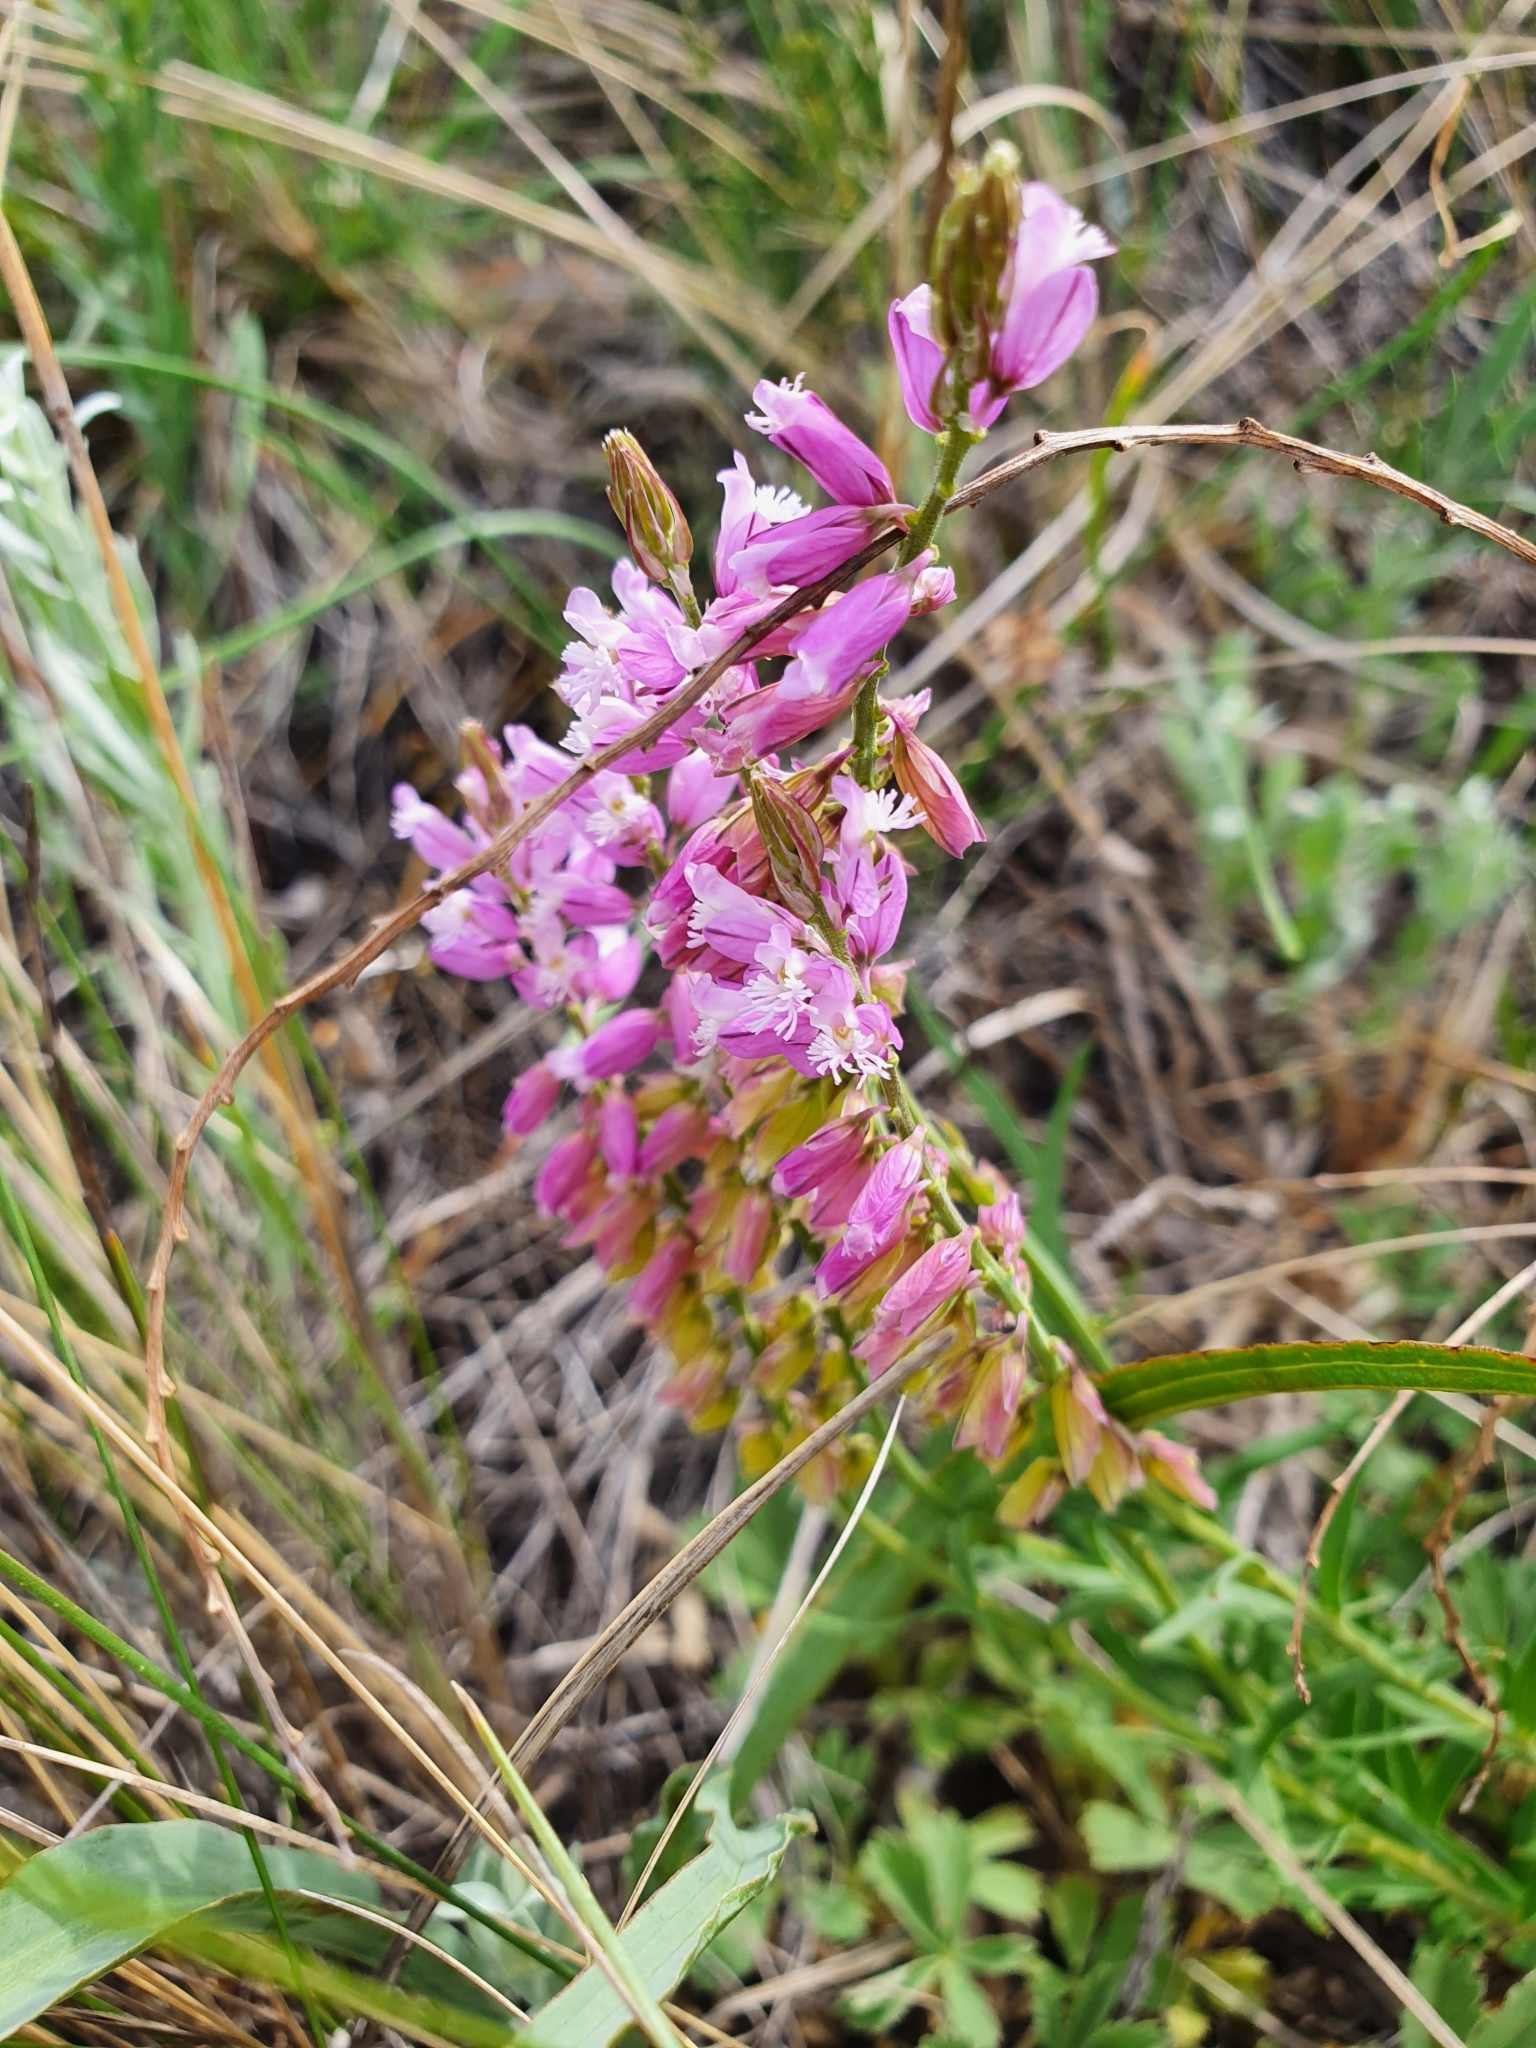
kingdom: Plantae
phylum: Tracheophyta
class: Magnoliopsida
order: Fabales
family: Polygalaceae
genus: Polygala
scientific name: Polygala comosa
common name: Tufted milkwort
